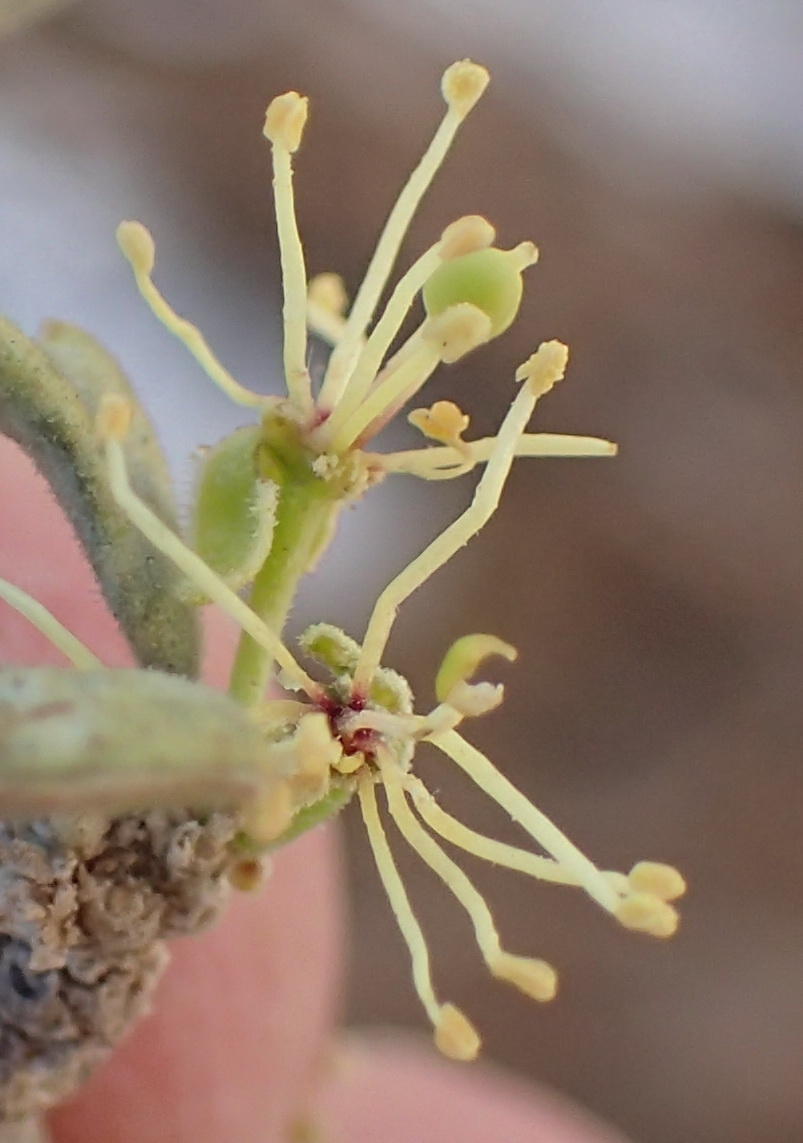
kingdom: Plantae
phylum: Tracheophyta
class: Magnoliopsida
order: Brassicales
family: Capparaceae
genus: Boscia
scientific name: Boscia albitrunca
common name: Caper bush
